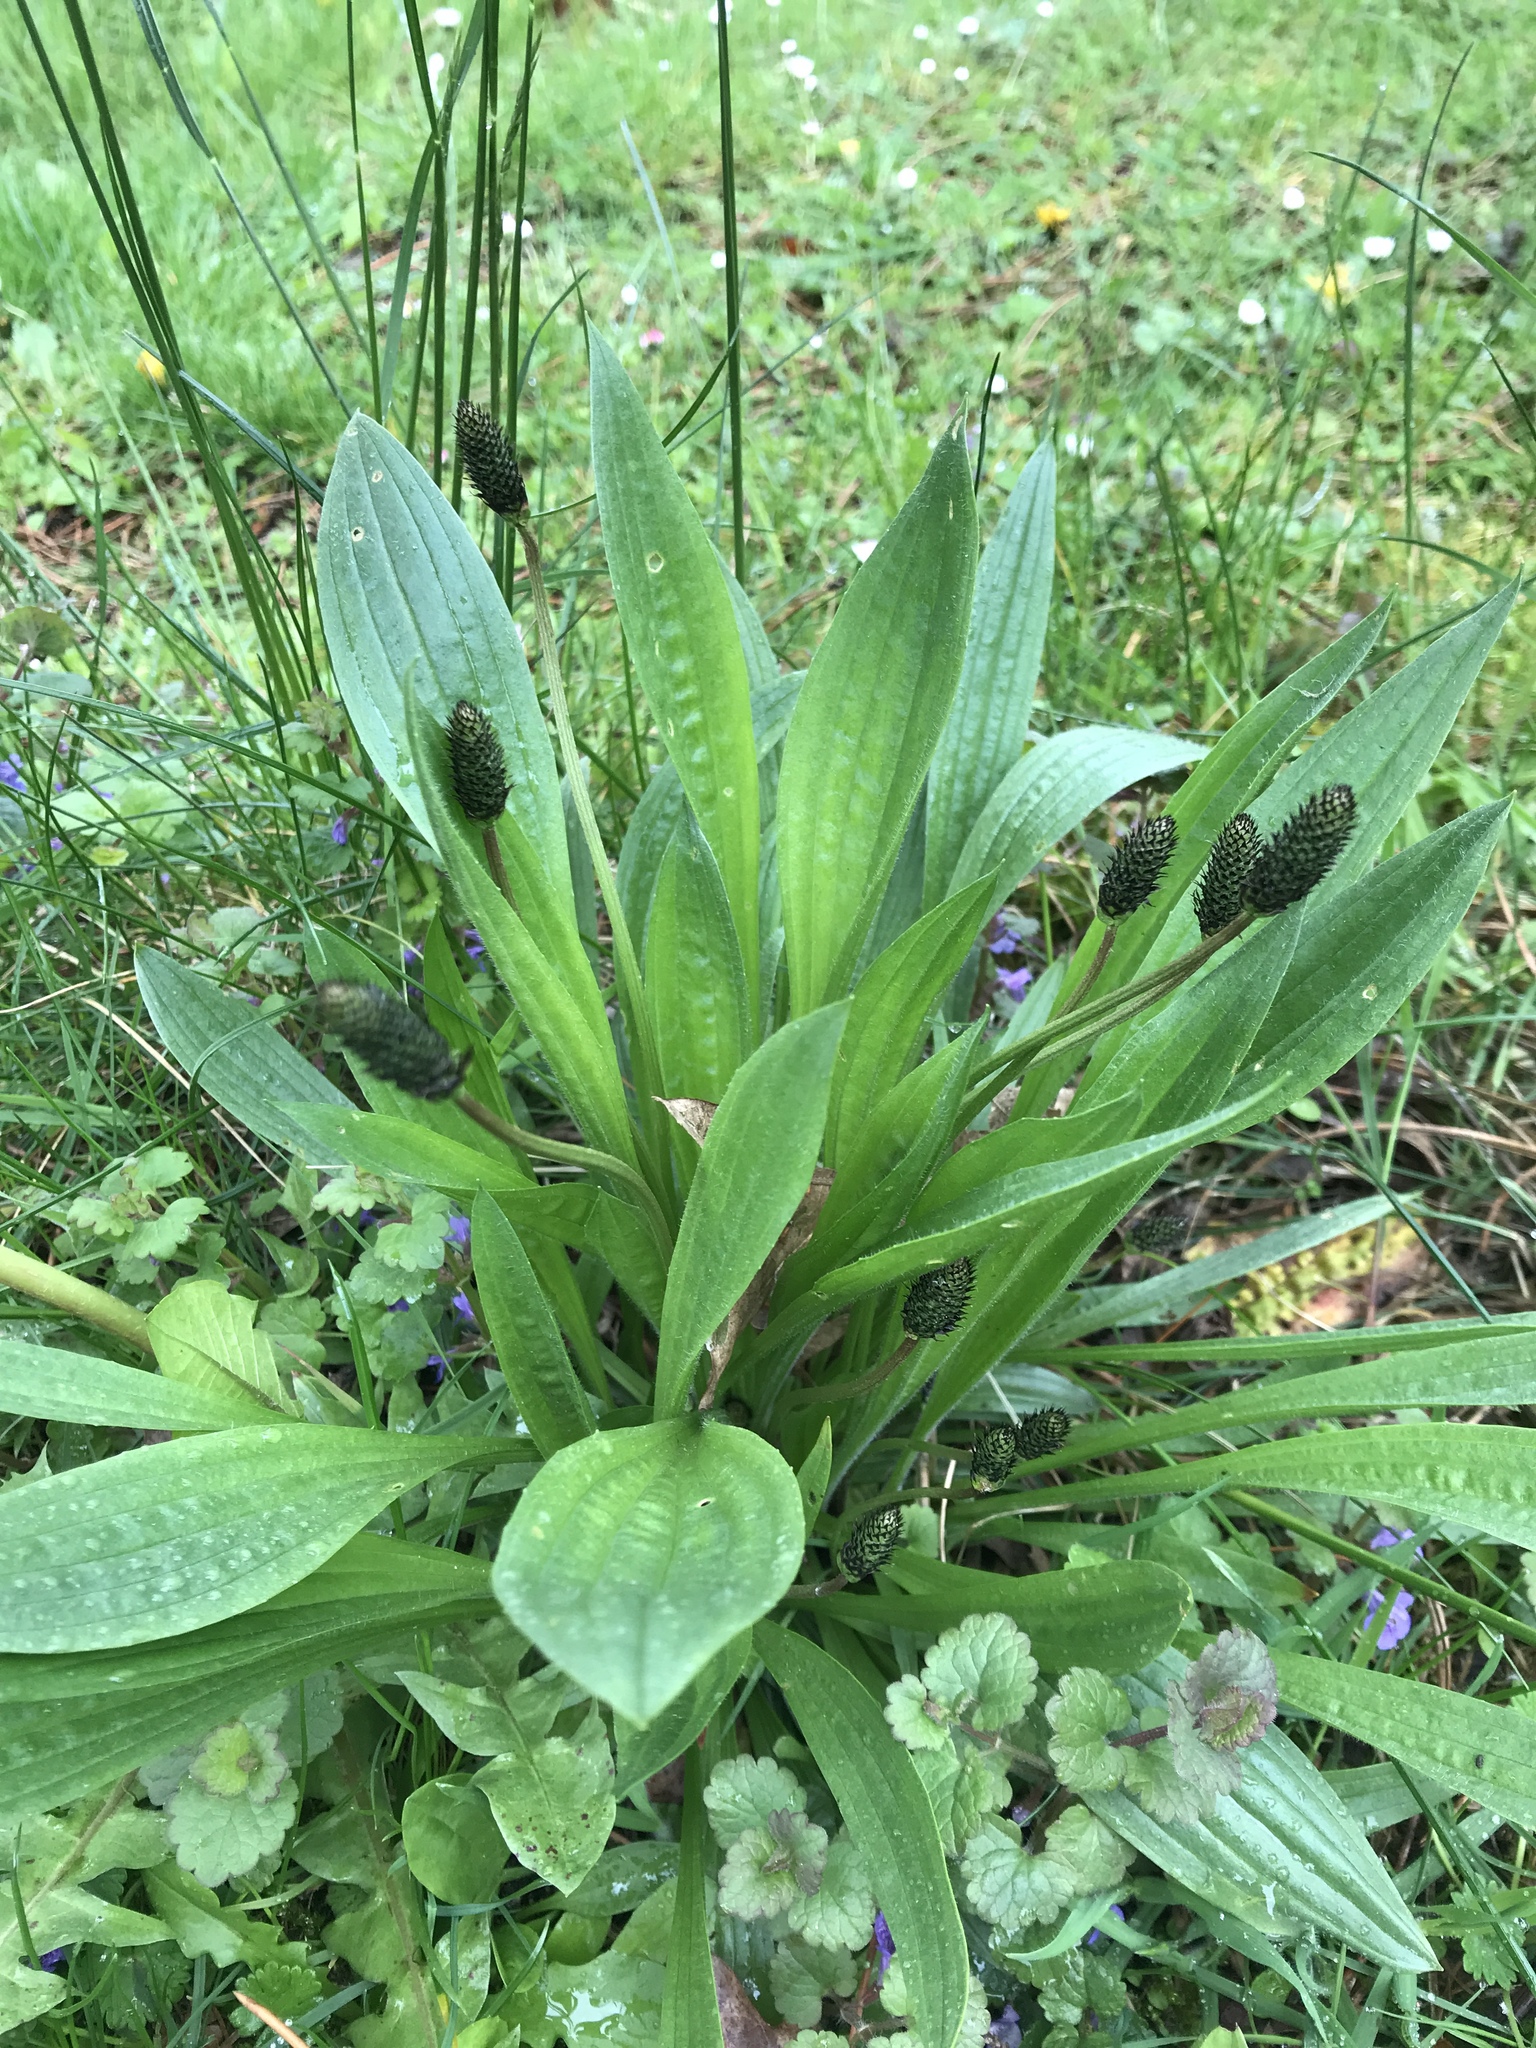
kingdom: Plantae
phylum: Tracheophyta
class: Magnoliopsida
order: Lamiales
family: Plantaginaceae
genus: Plantago
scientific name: Plantago lanceolata
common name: Ribwort plantain
